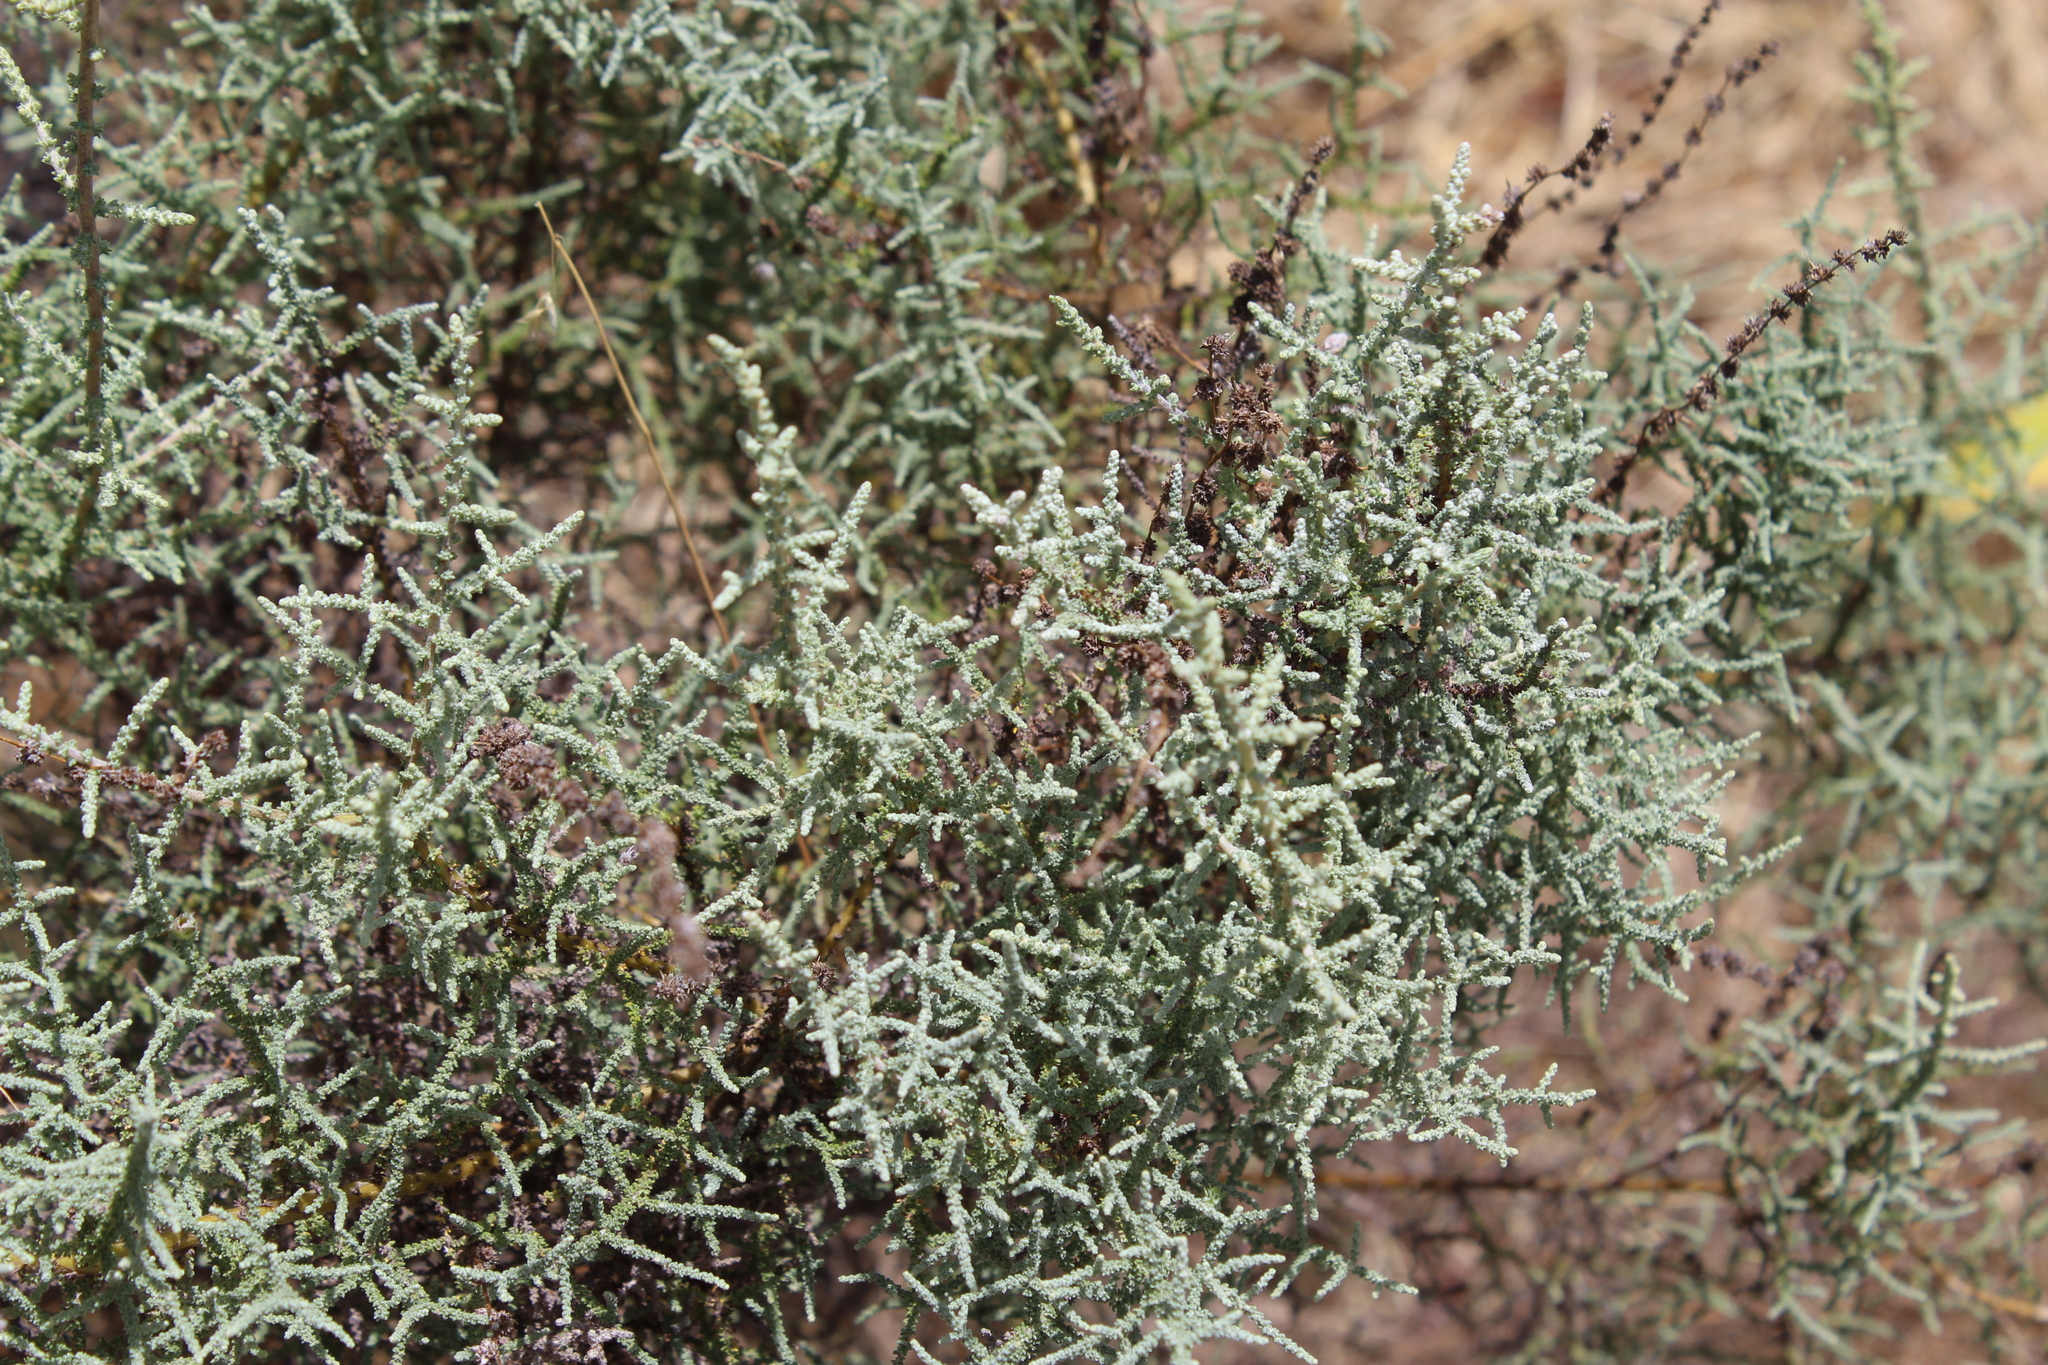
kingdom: Plantae
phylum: Tracheophyta
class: Magnoliopsida
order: Asterales
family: Asteraceae
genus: Seriphium
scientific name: Seriphium plumosum
